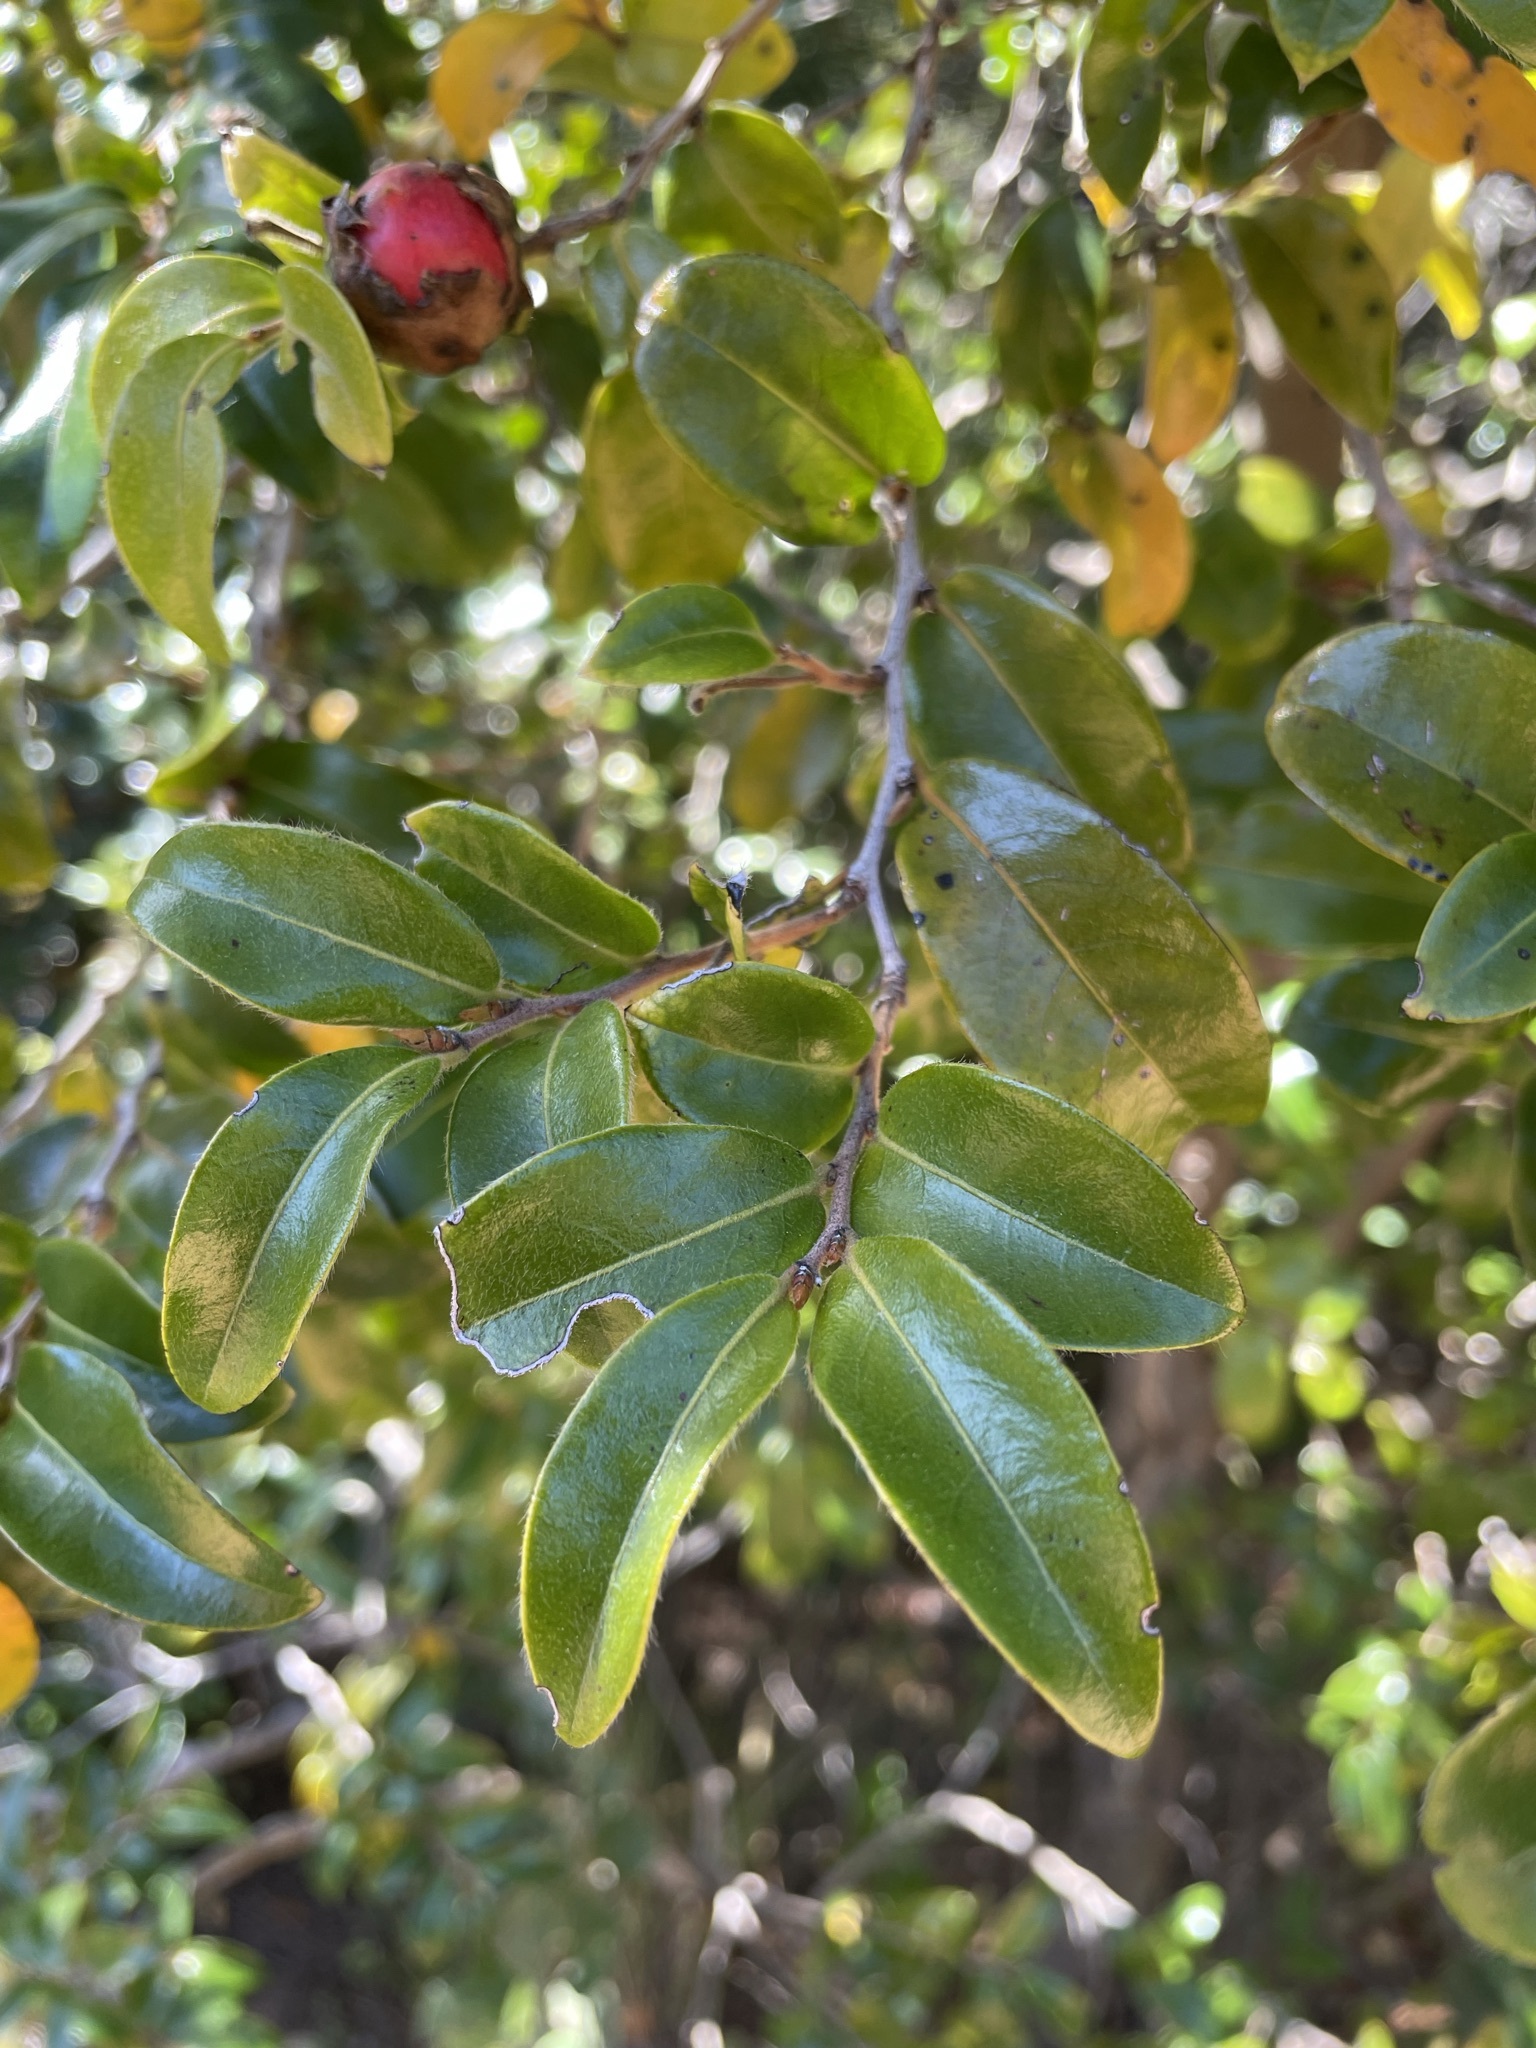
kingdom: Plantae
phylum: Tracheophyta
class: Magnoliopsida
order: Ericales
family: Ebenaceae
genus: Diospyros
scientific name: Diospyros whyteana
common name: Bladder-nut
